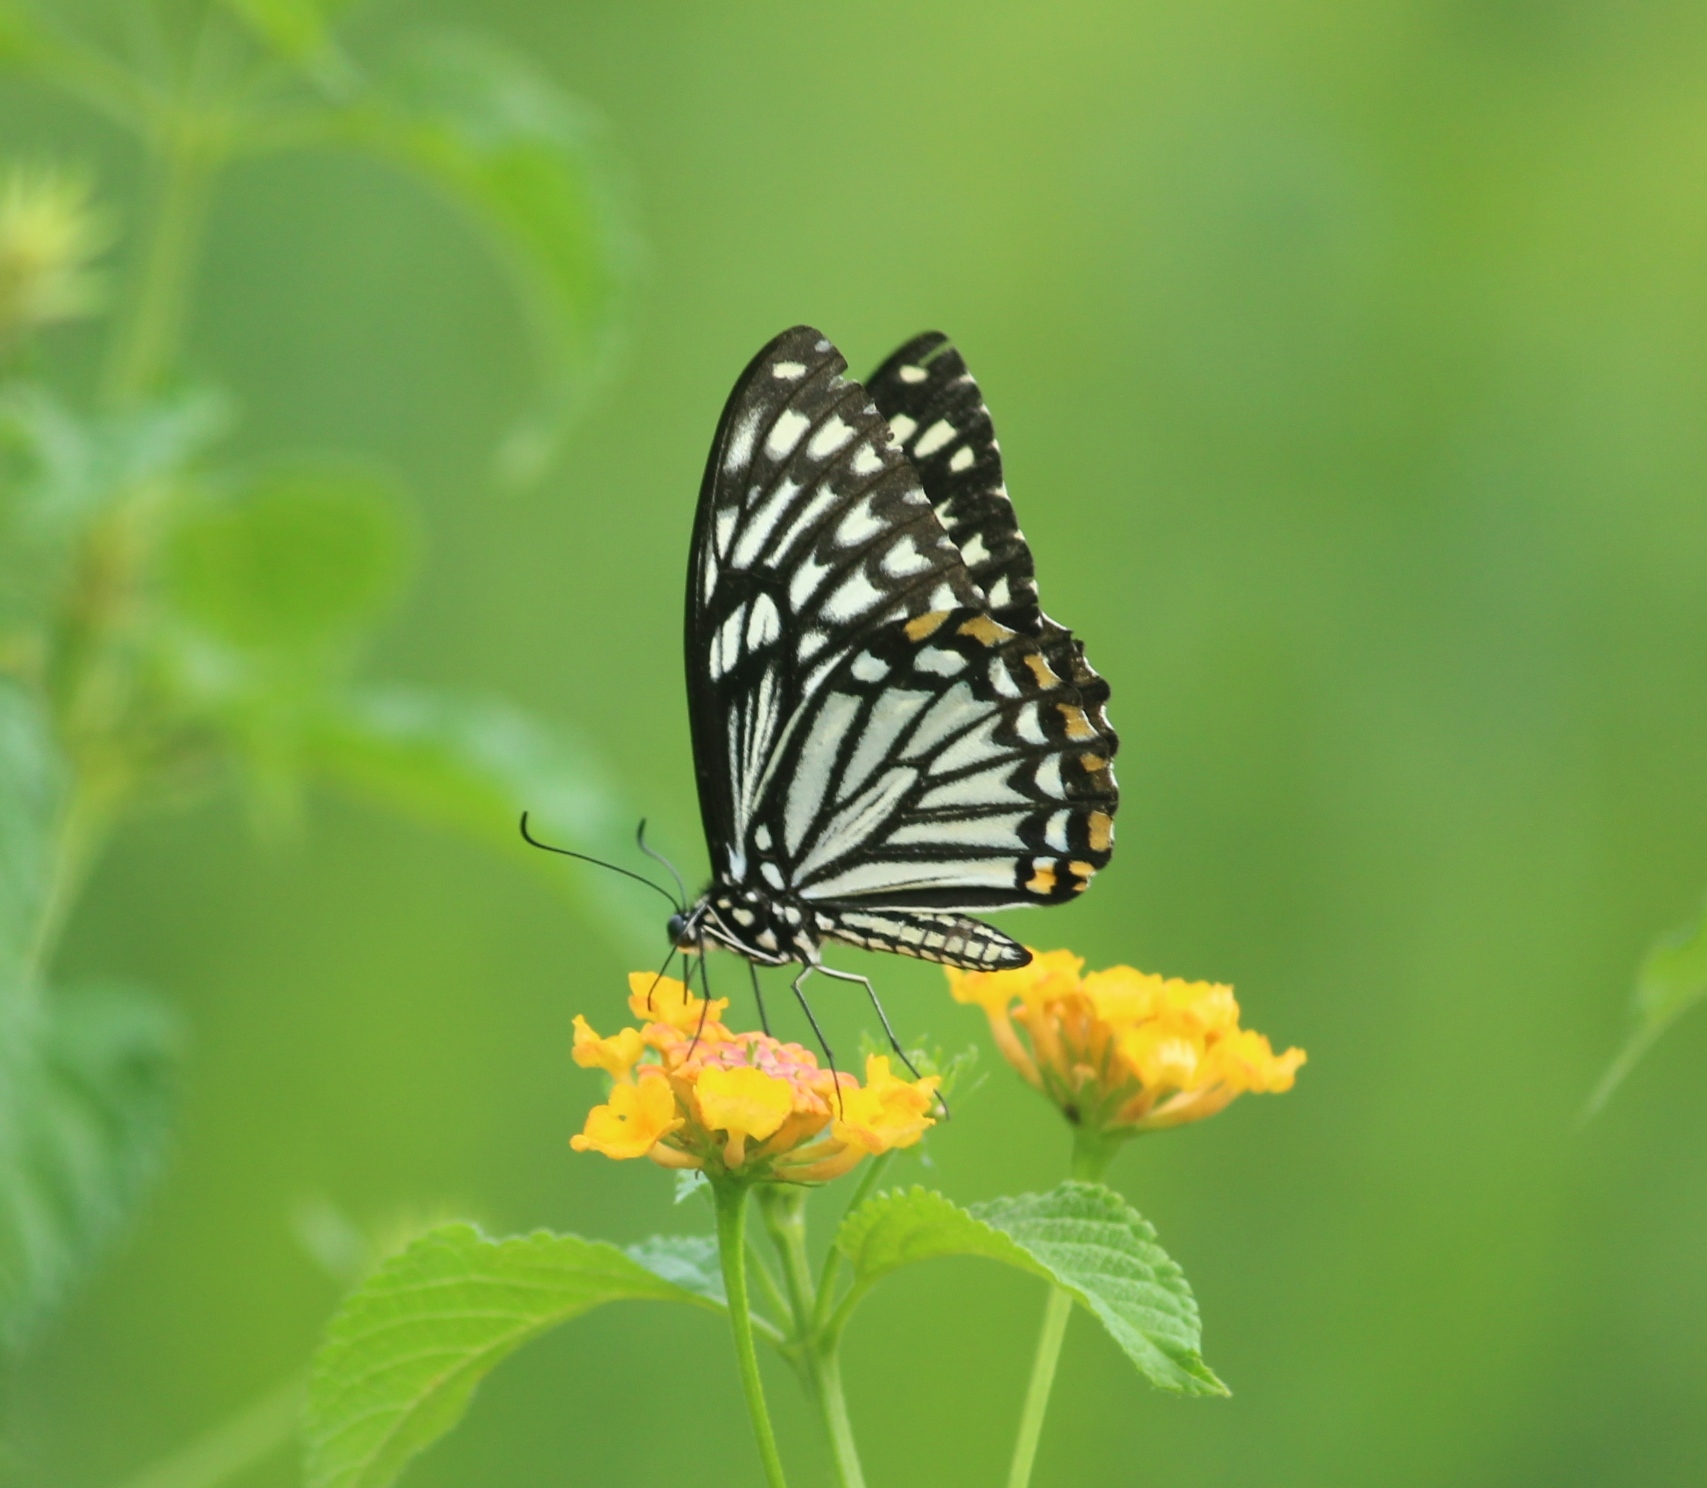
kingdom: Animalia
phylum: Arthropoda
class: Insecta
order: Lepidoptera
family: Papilionidae
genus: Chilasa
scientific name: Chilasa clytia
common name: Common mime
